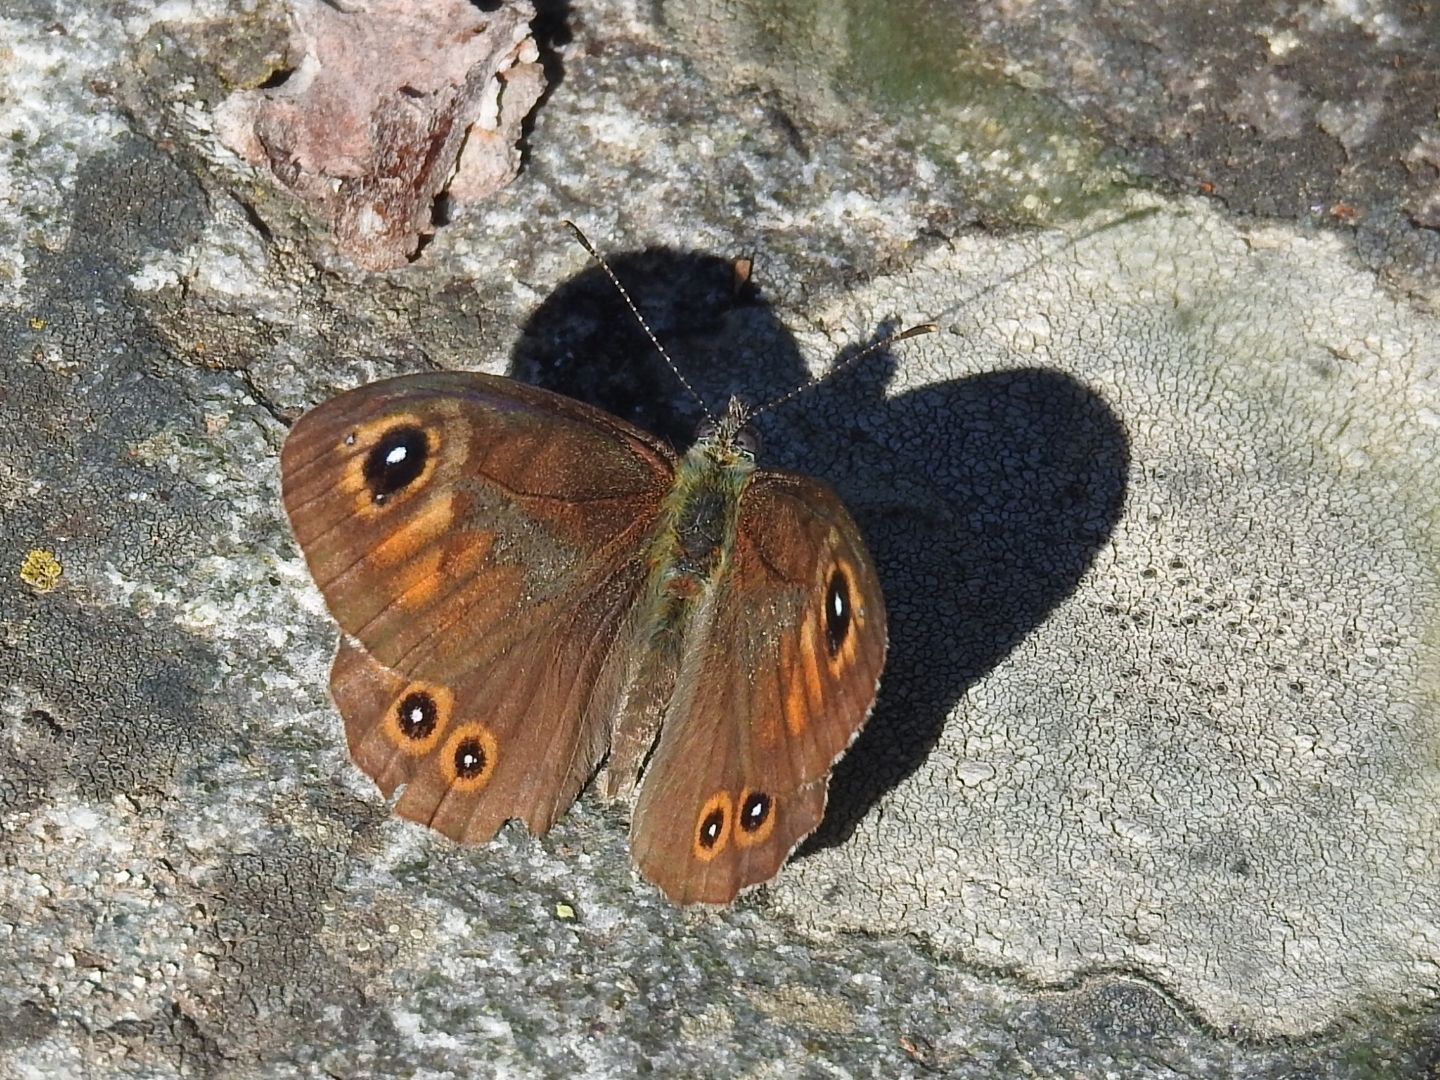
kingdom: Animalia
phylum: Arthropoda
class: Insecta
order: Lepidoptera
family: Nymphalidae
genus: Pararge
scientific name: Pararge Lasiommata maera
